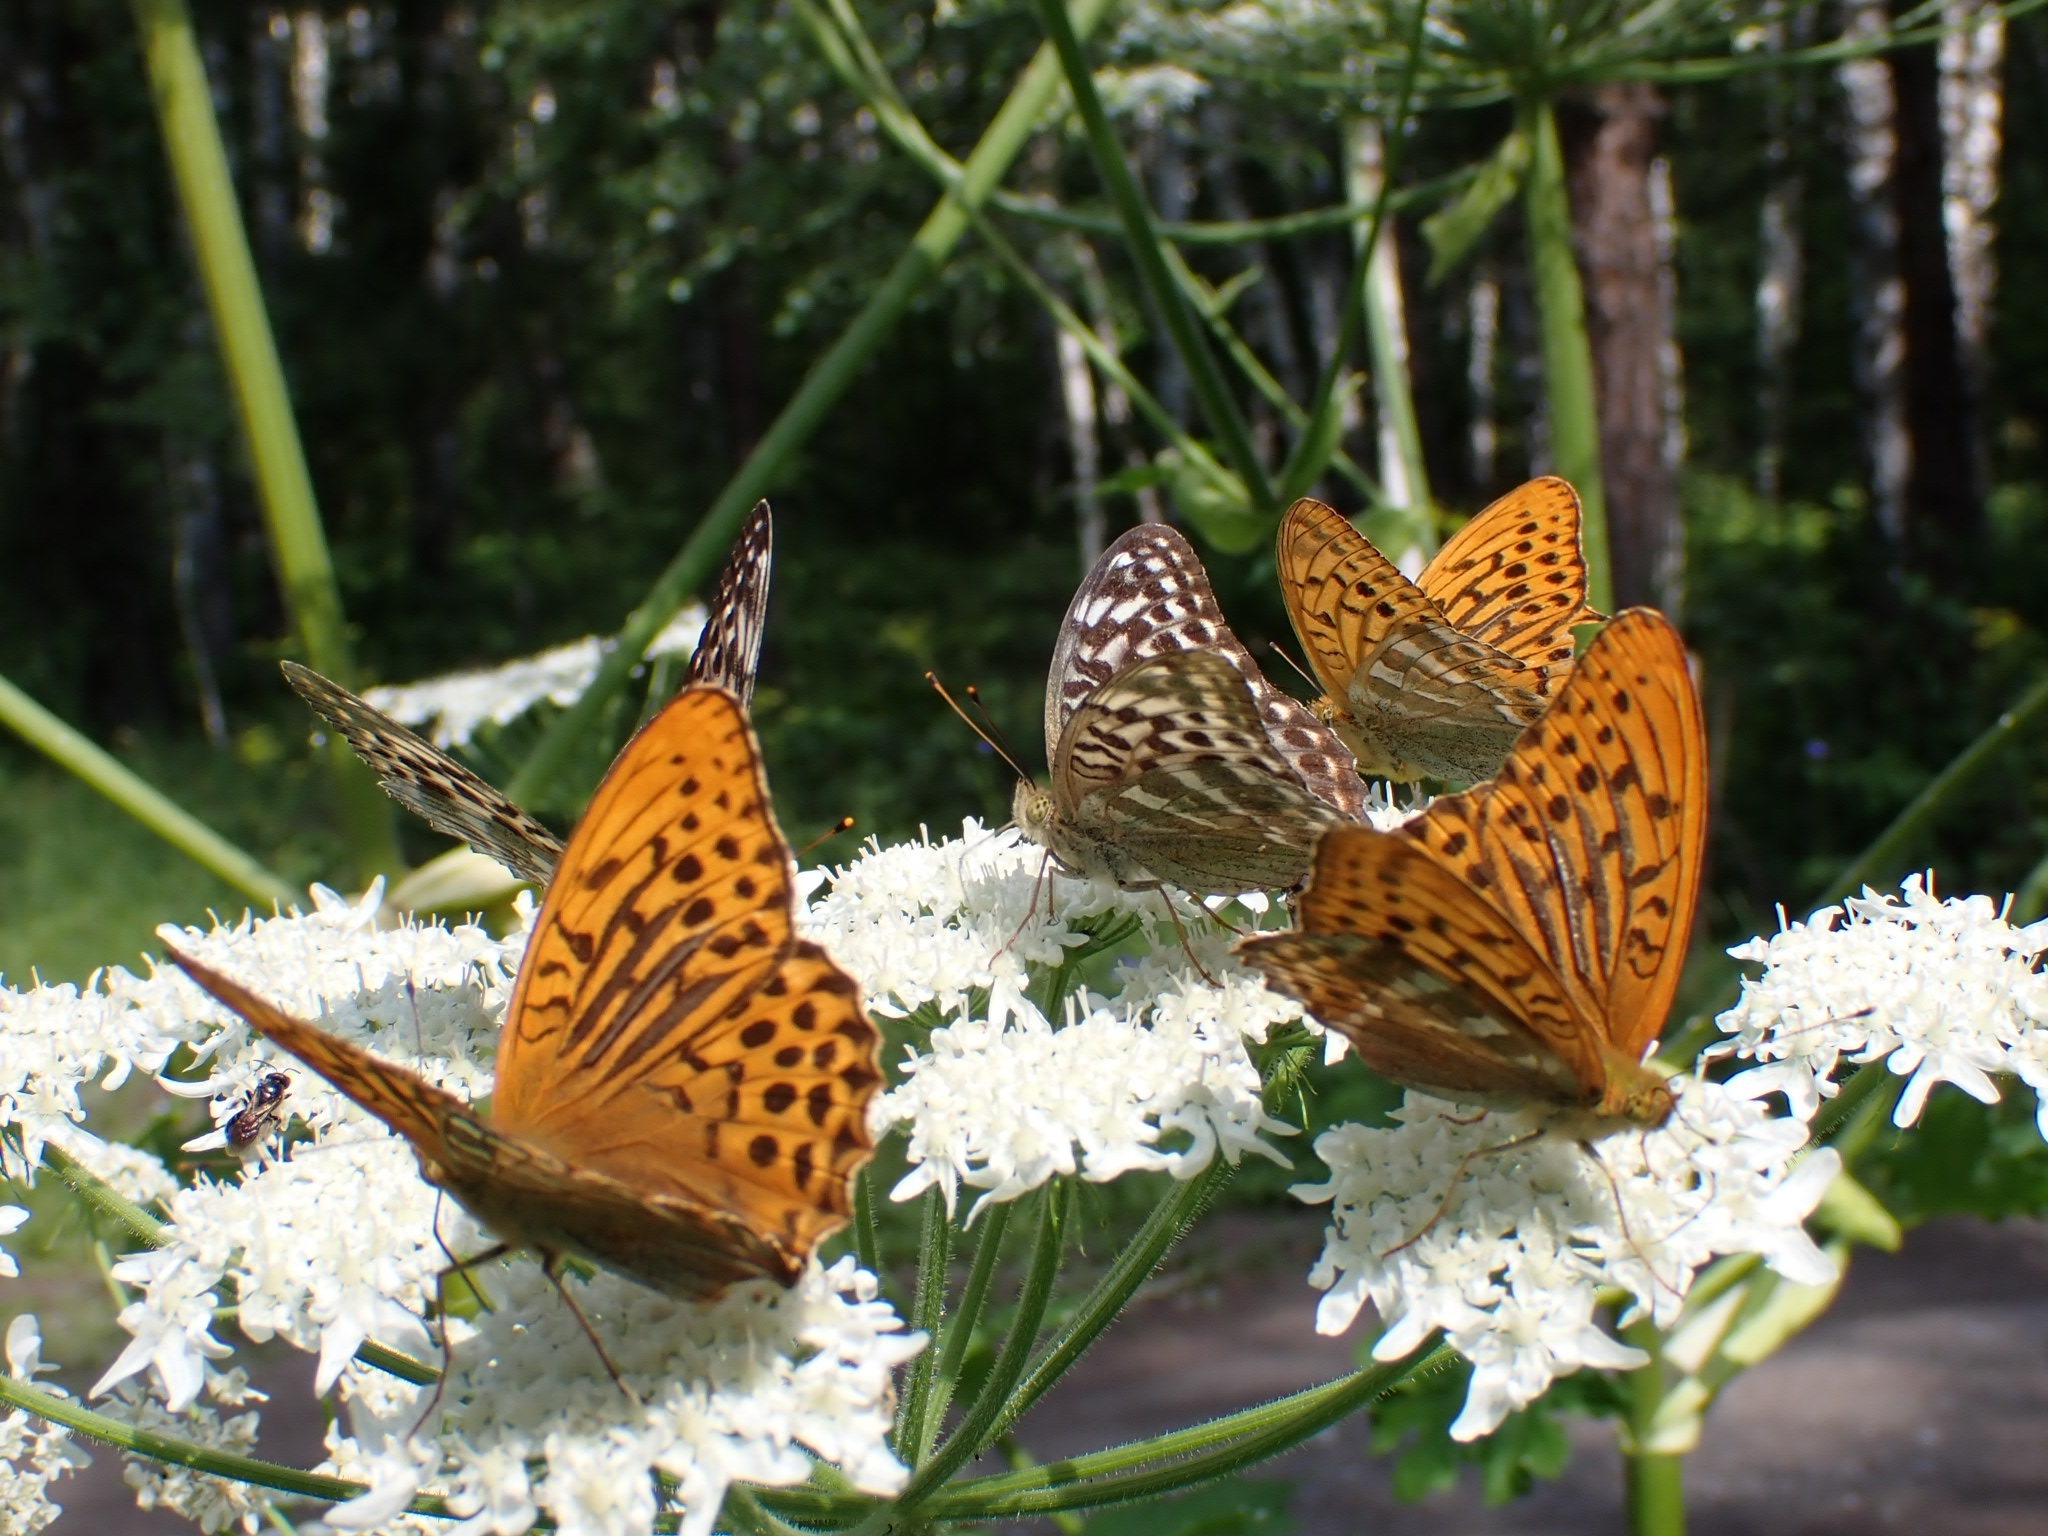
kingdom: Animalia
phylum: Arthropoda
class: Insecta
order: Lepidoptera
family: Nymphalidae
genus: Argynnis
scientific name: Argynnis paphia
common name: Silver-washed fritillary
